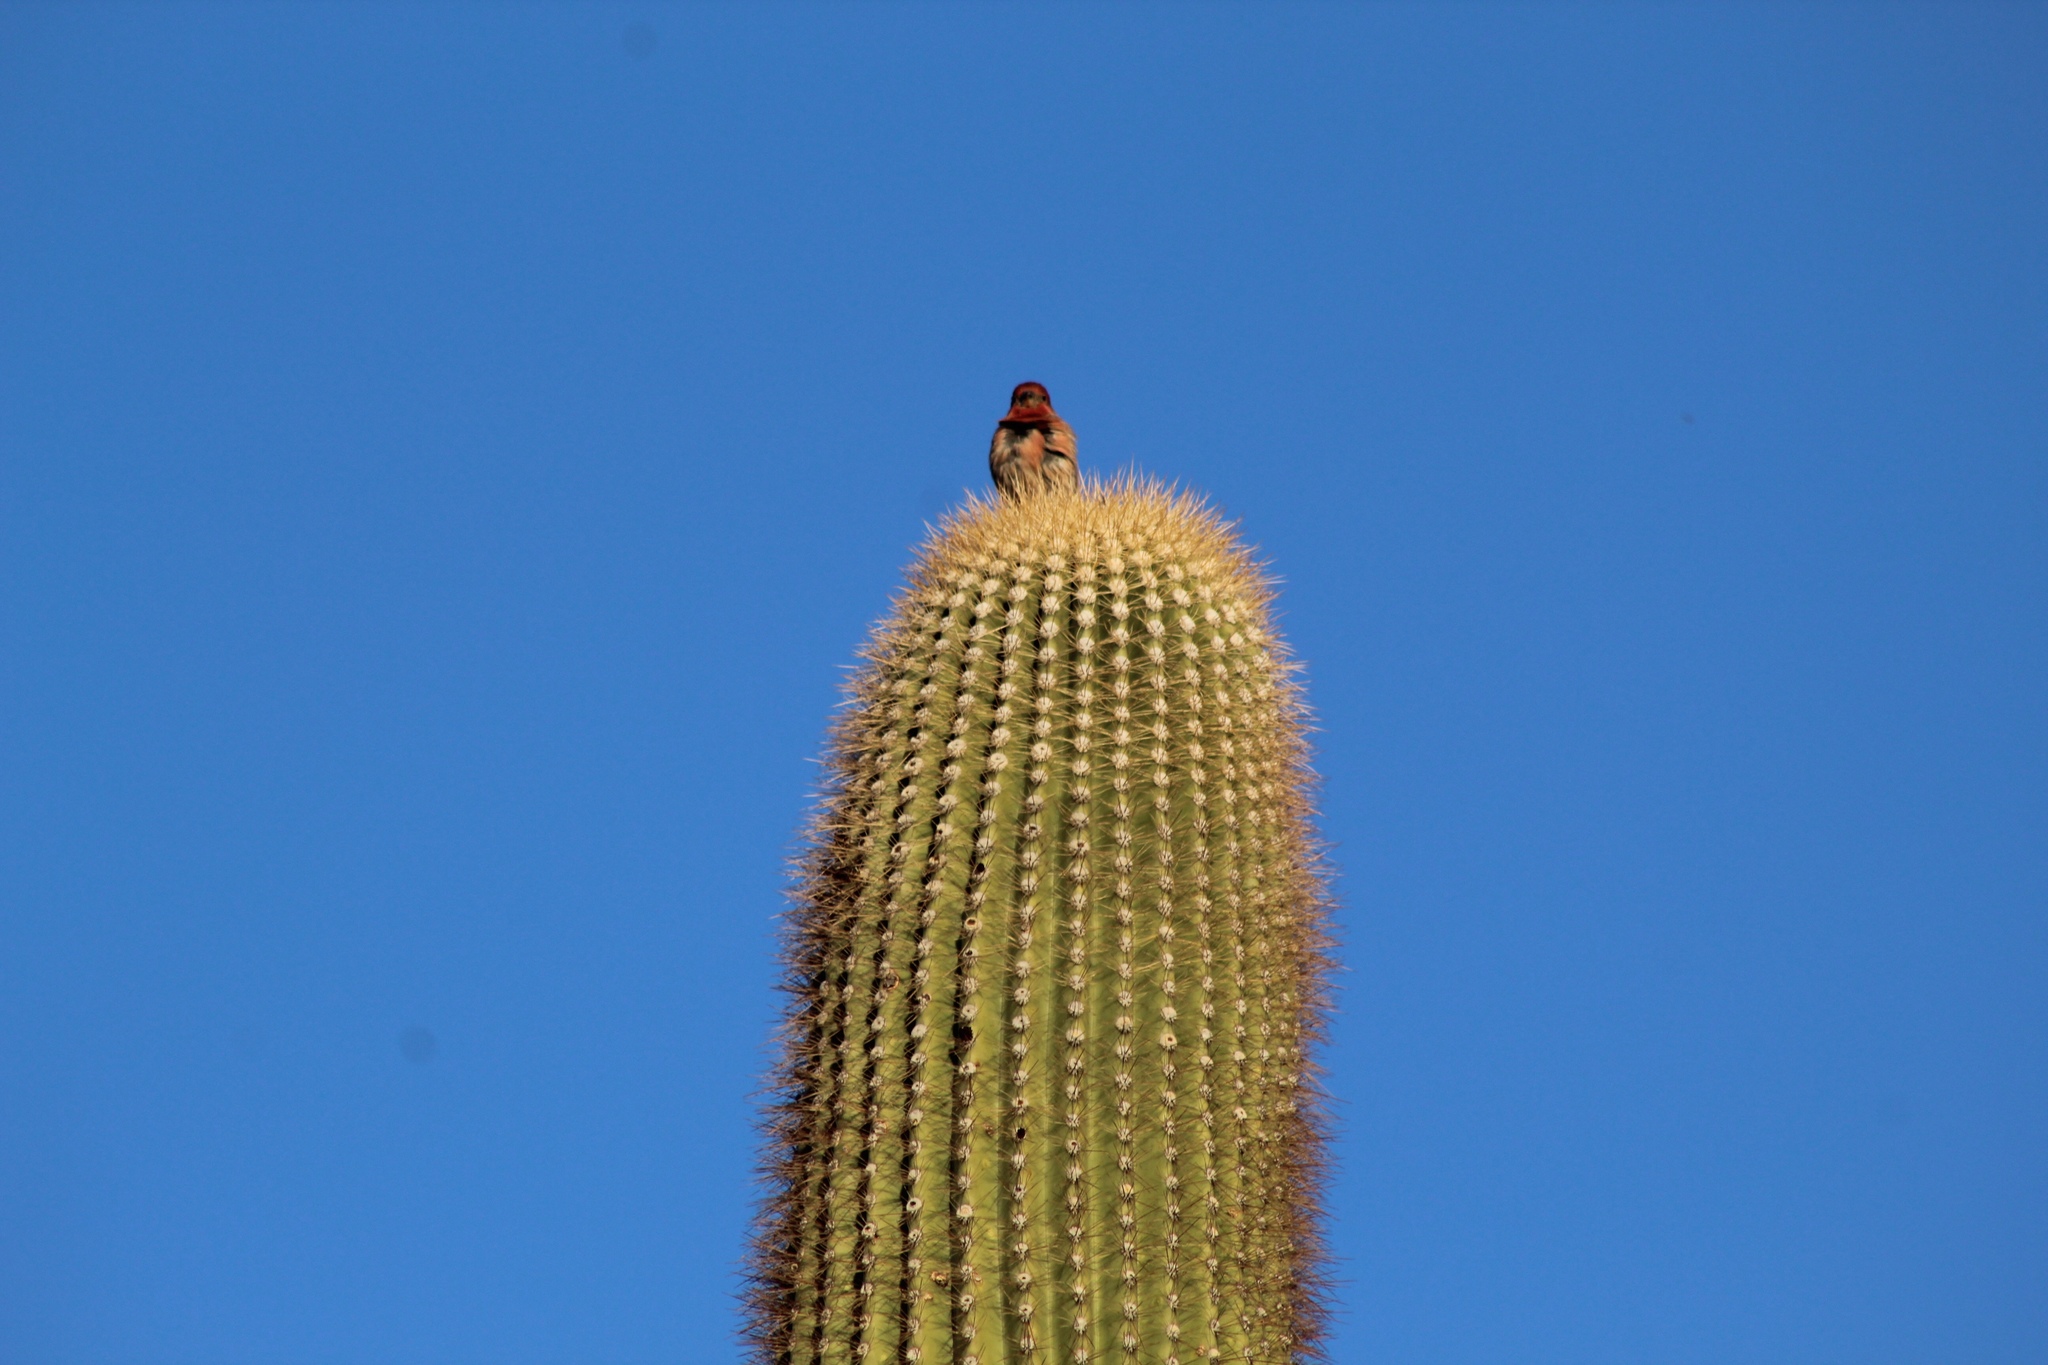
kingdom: Animalia
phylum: Chordata
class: Aves
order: Passeriformes
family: Fringillidae
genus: Haemorhous
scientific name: Haemorhous mexicanus
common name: House finch
